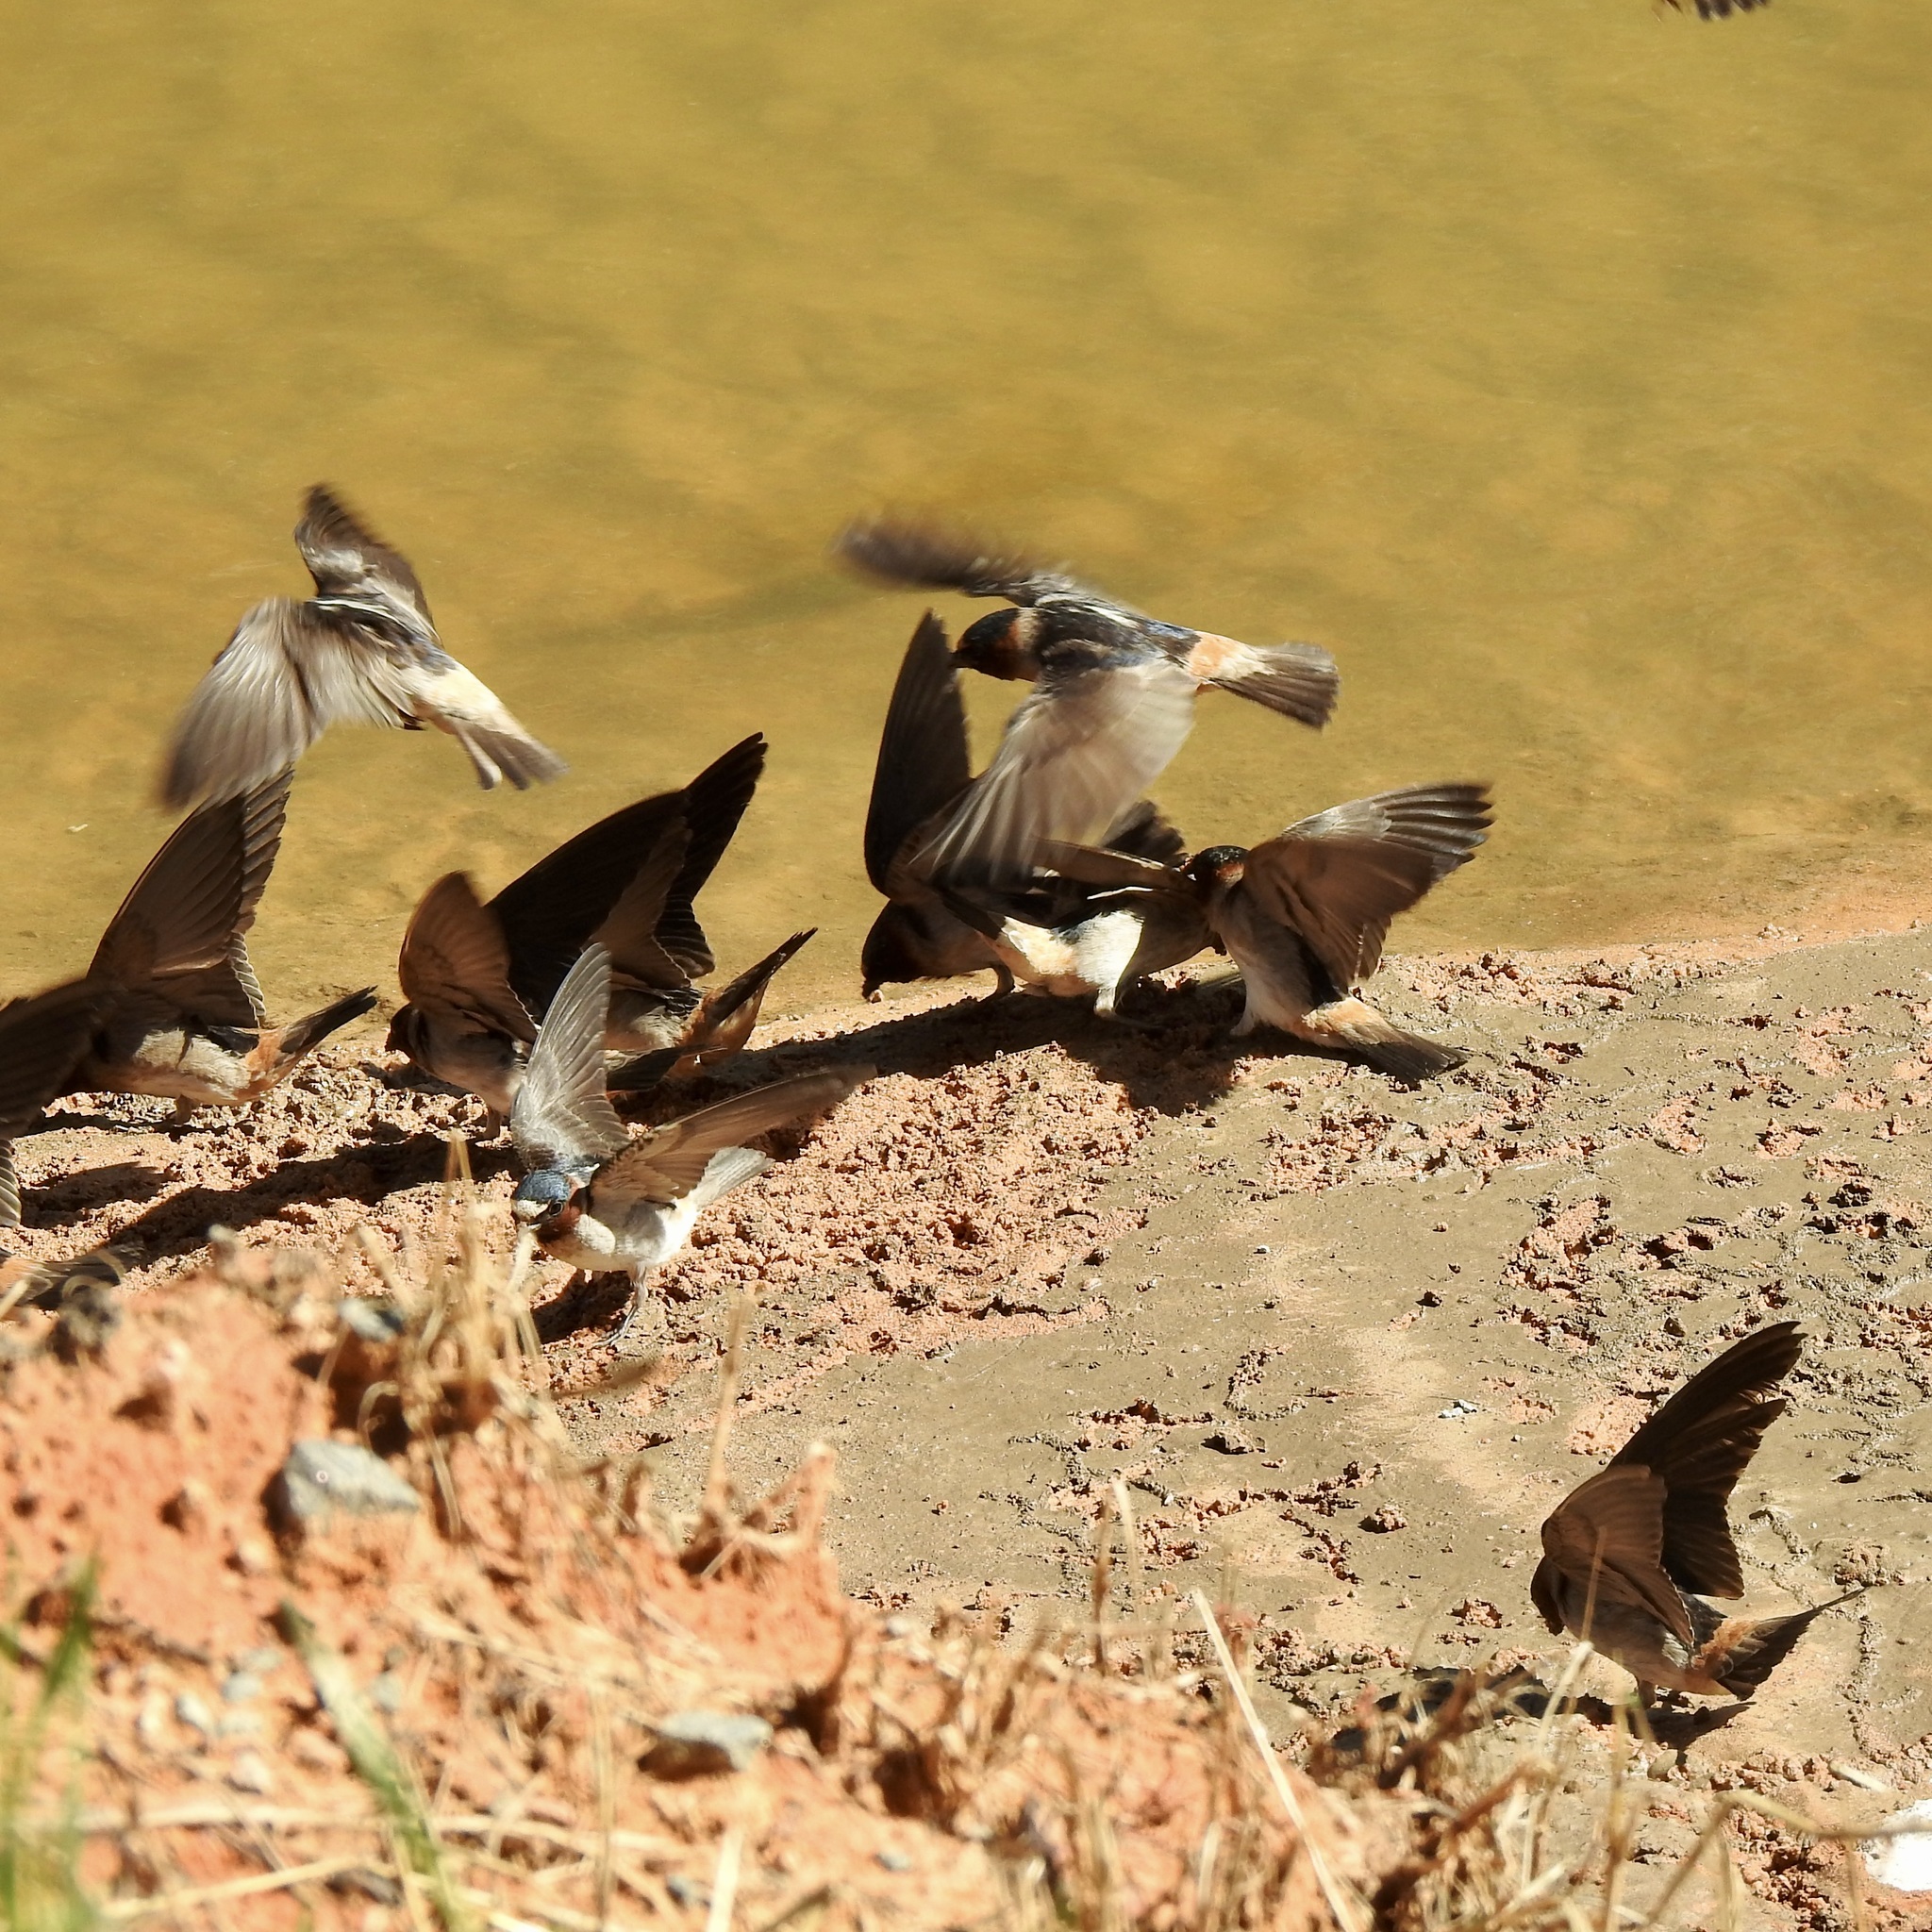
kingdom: Animalia
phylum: Chordata
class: Aves
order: Passeriformes
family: Hirundinidae
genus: Petrochelidon
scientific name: Petrochelidon pyrrhonota
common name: American cliff swallow
